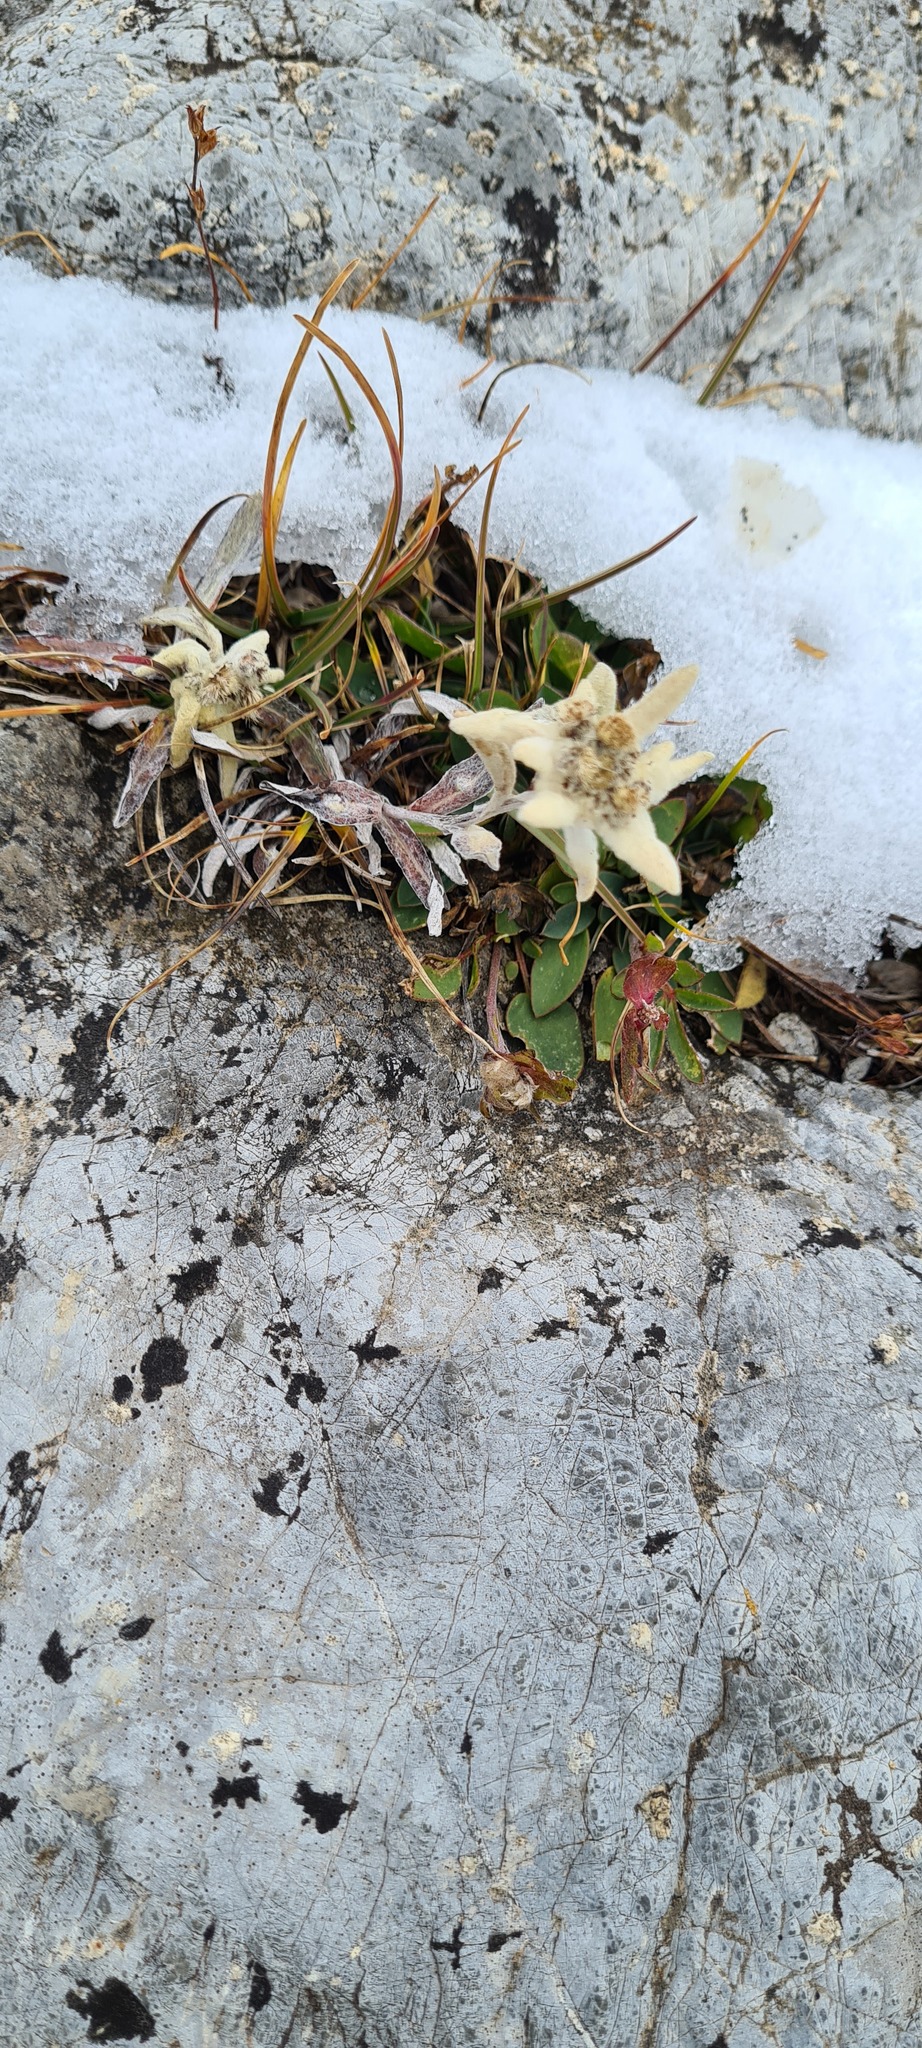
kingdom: Plantae
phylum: Tracheophyta
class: Magnoliopsida
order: Asterales
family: Asteraceae
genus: Leontopodium
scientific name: Leontopodium nivale
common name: Edelweiss
